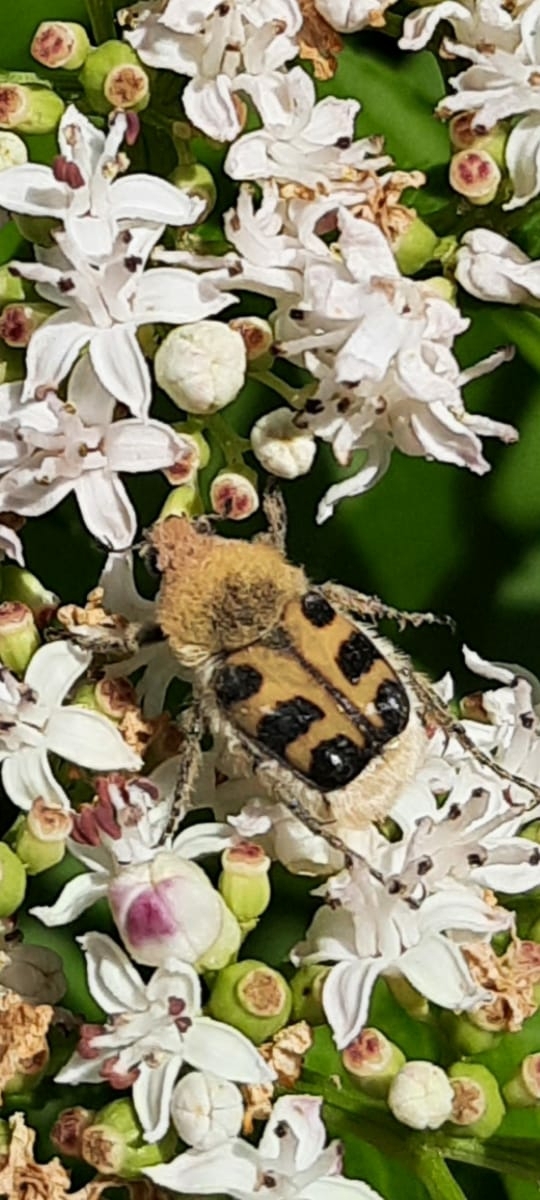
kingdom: Animalia
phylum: Arthropoda
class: Insecta
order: Coleoptera
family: Scarabaeidae
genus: Trichius
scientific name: Trichius gallicus
